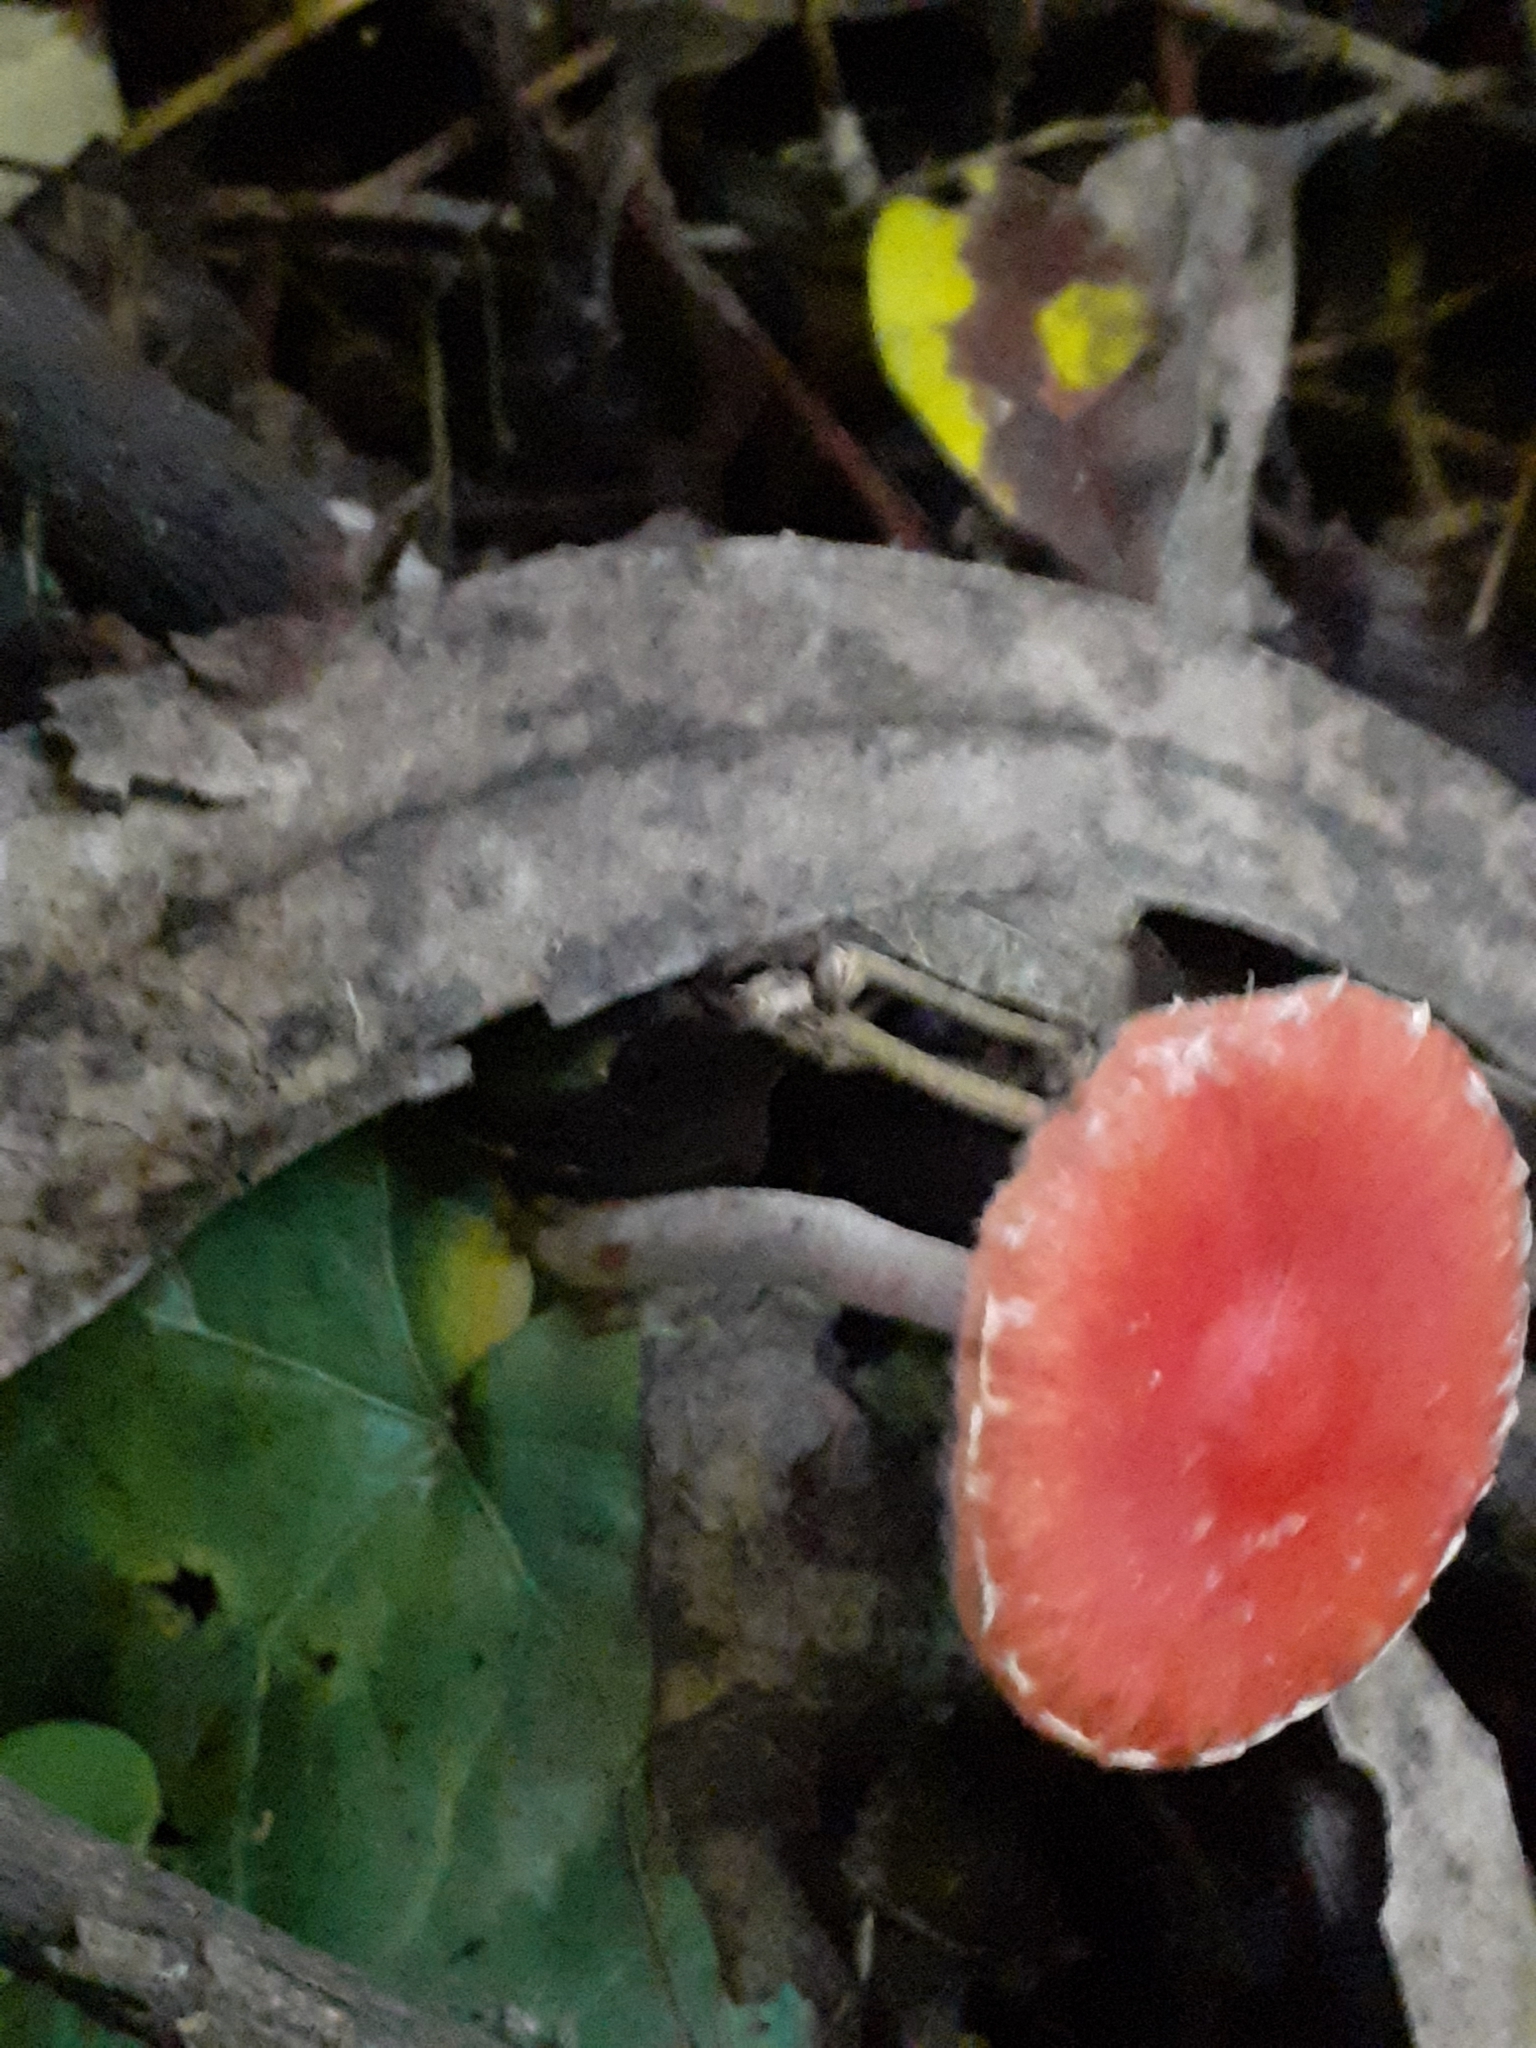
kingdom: Fungi
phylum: Basidiomycota
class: Agaricomycetes
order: Agaricales
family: Strophariaceae
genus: Leratiomyces
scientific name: Leratiomyces ceres
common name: Redlead roundhead
